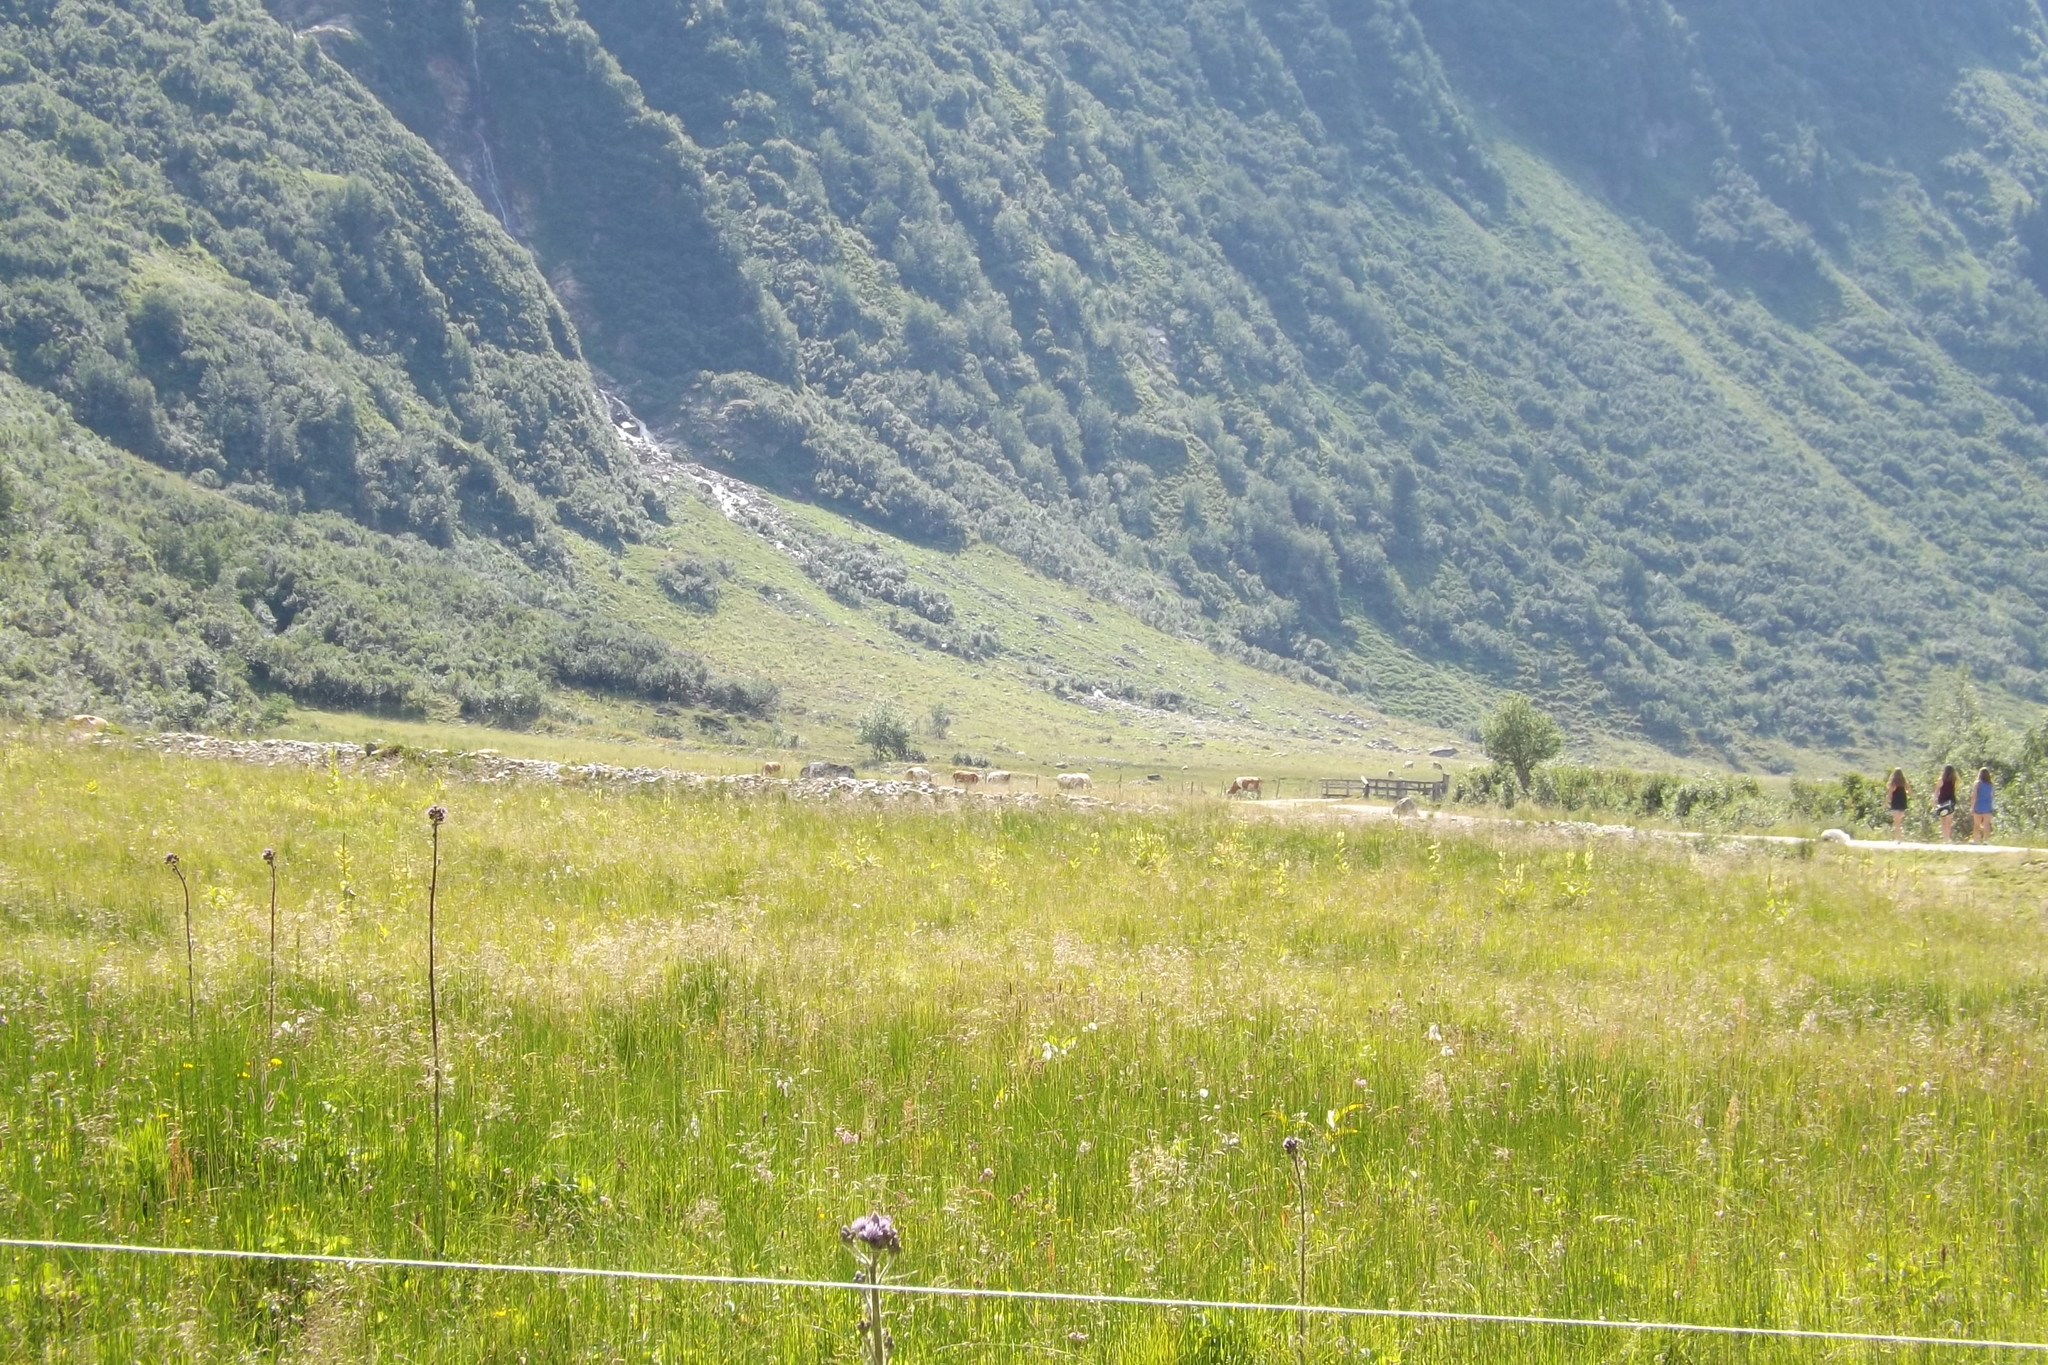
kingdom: Plantae
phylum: Tracheophyta
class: Magnoliopsida
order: Asterales
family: Asteraceae
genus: Cirsium
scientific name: Cirsium palustre
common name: Marsh thistle
